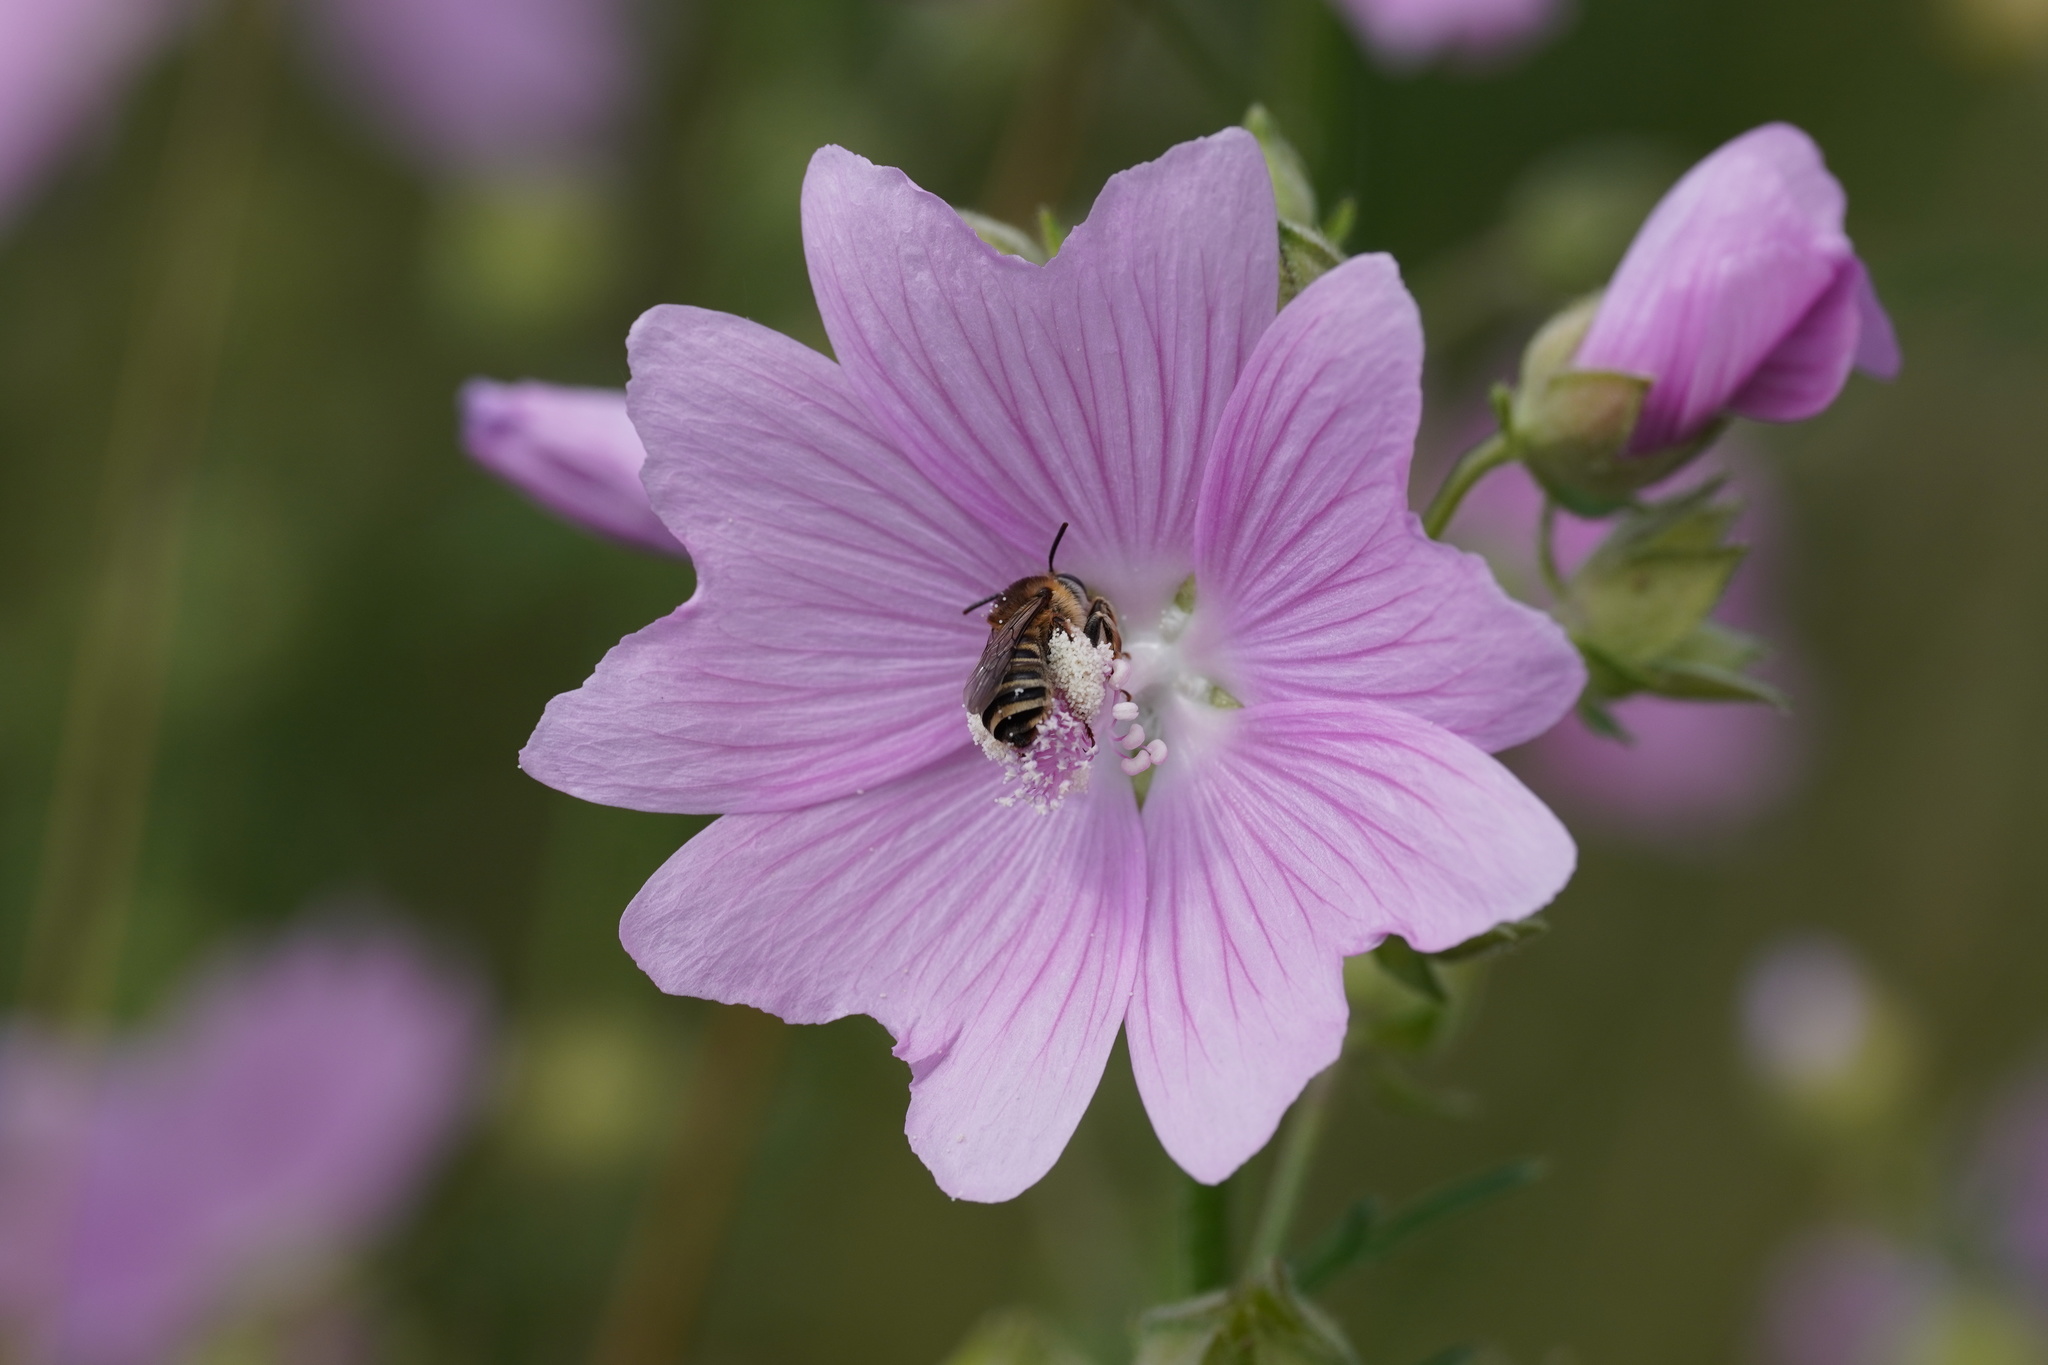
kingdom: Animalia
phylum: Arthropoda
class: Insecta
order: Hymenoptera
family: Apidae
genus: Tetralonia
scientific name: Tetralonia malvae
